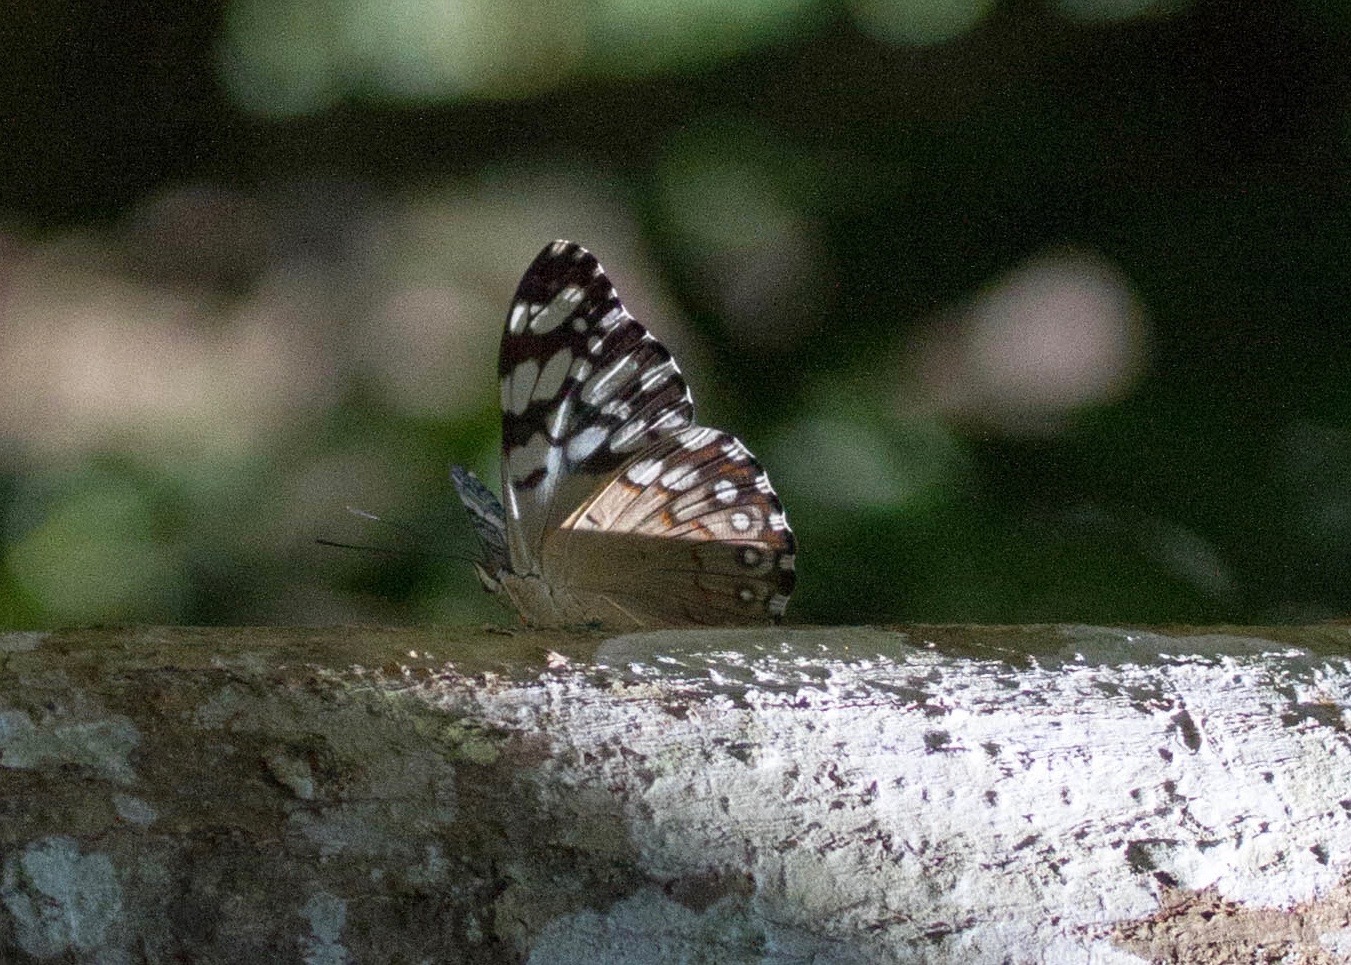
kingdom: Animalia
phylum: Arthropoda
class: Insecta
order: Lepidoptera
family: Nymphalidae
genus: Hamadryas
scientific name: Hamadryas iphthime
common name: Brownish cracker
